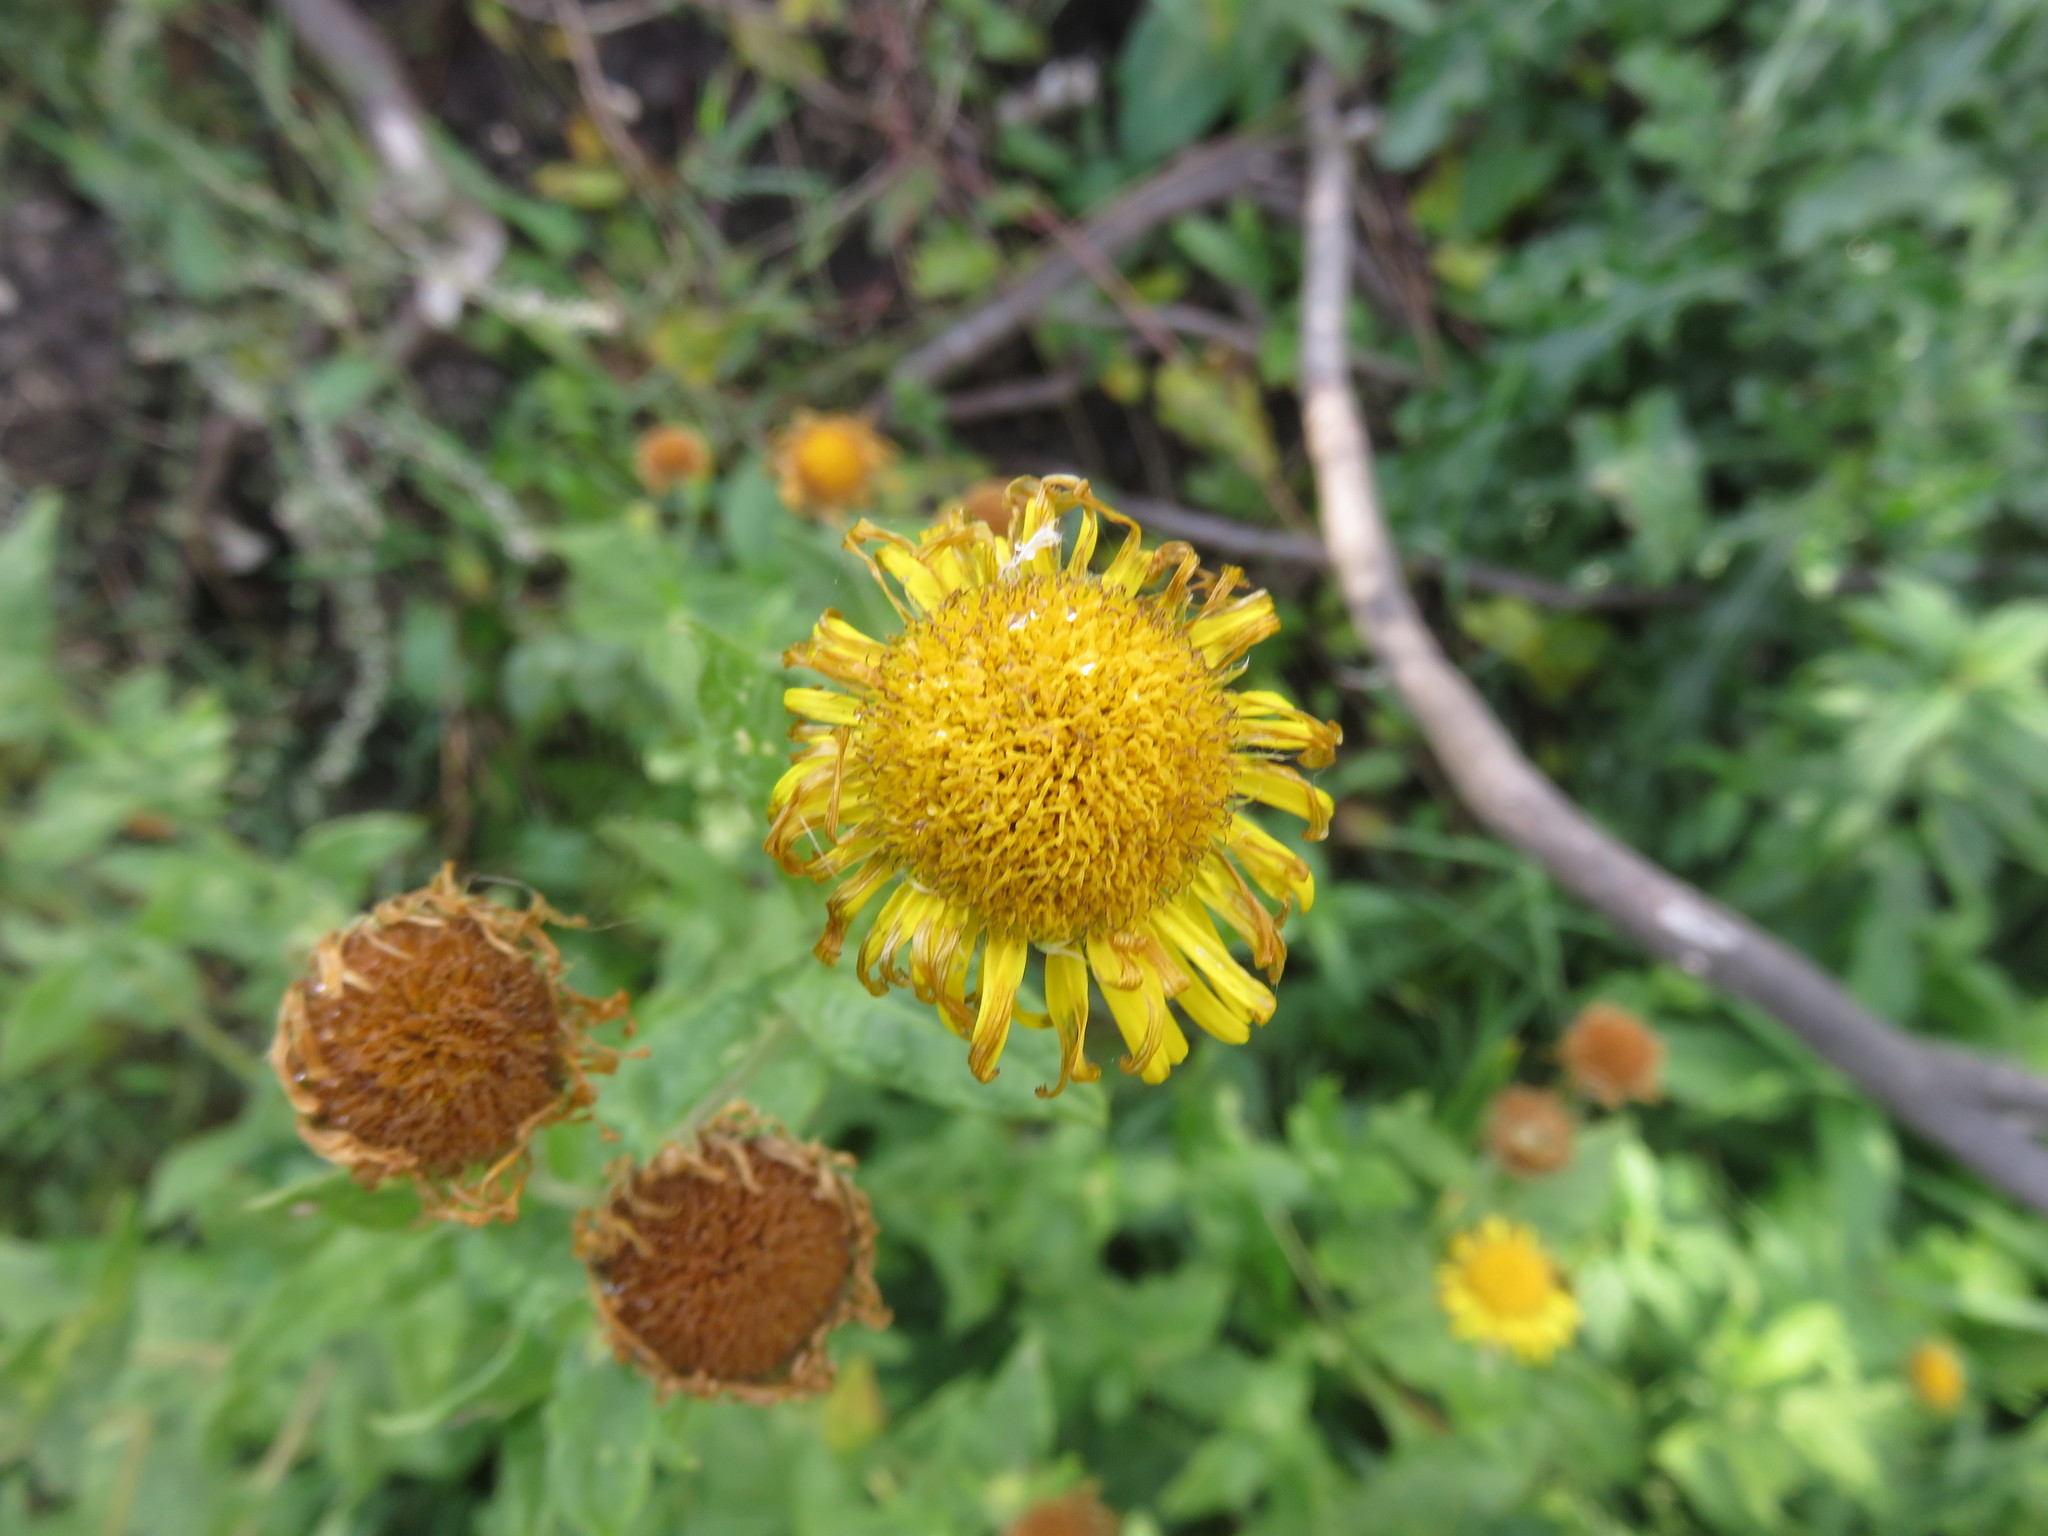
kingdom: Plantae
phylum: Tracheophyta
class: Magnoliopsida
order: Asterales
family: Asteraceae
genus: Pulicaria
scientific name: Pulicaria dysenterica
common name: Common fleabane
